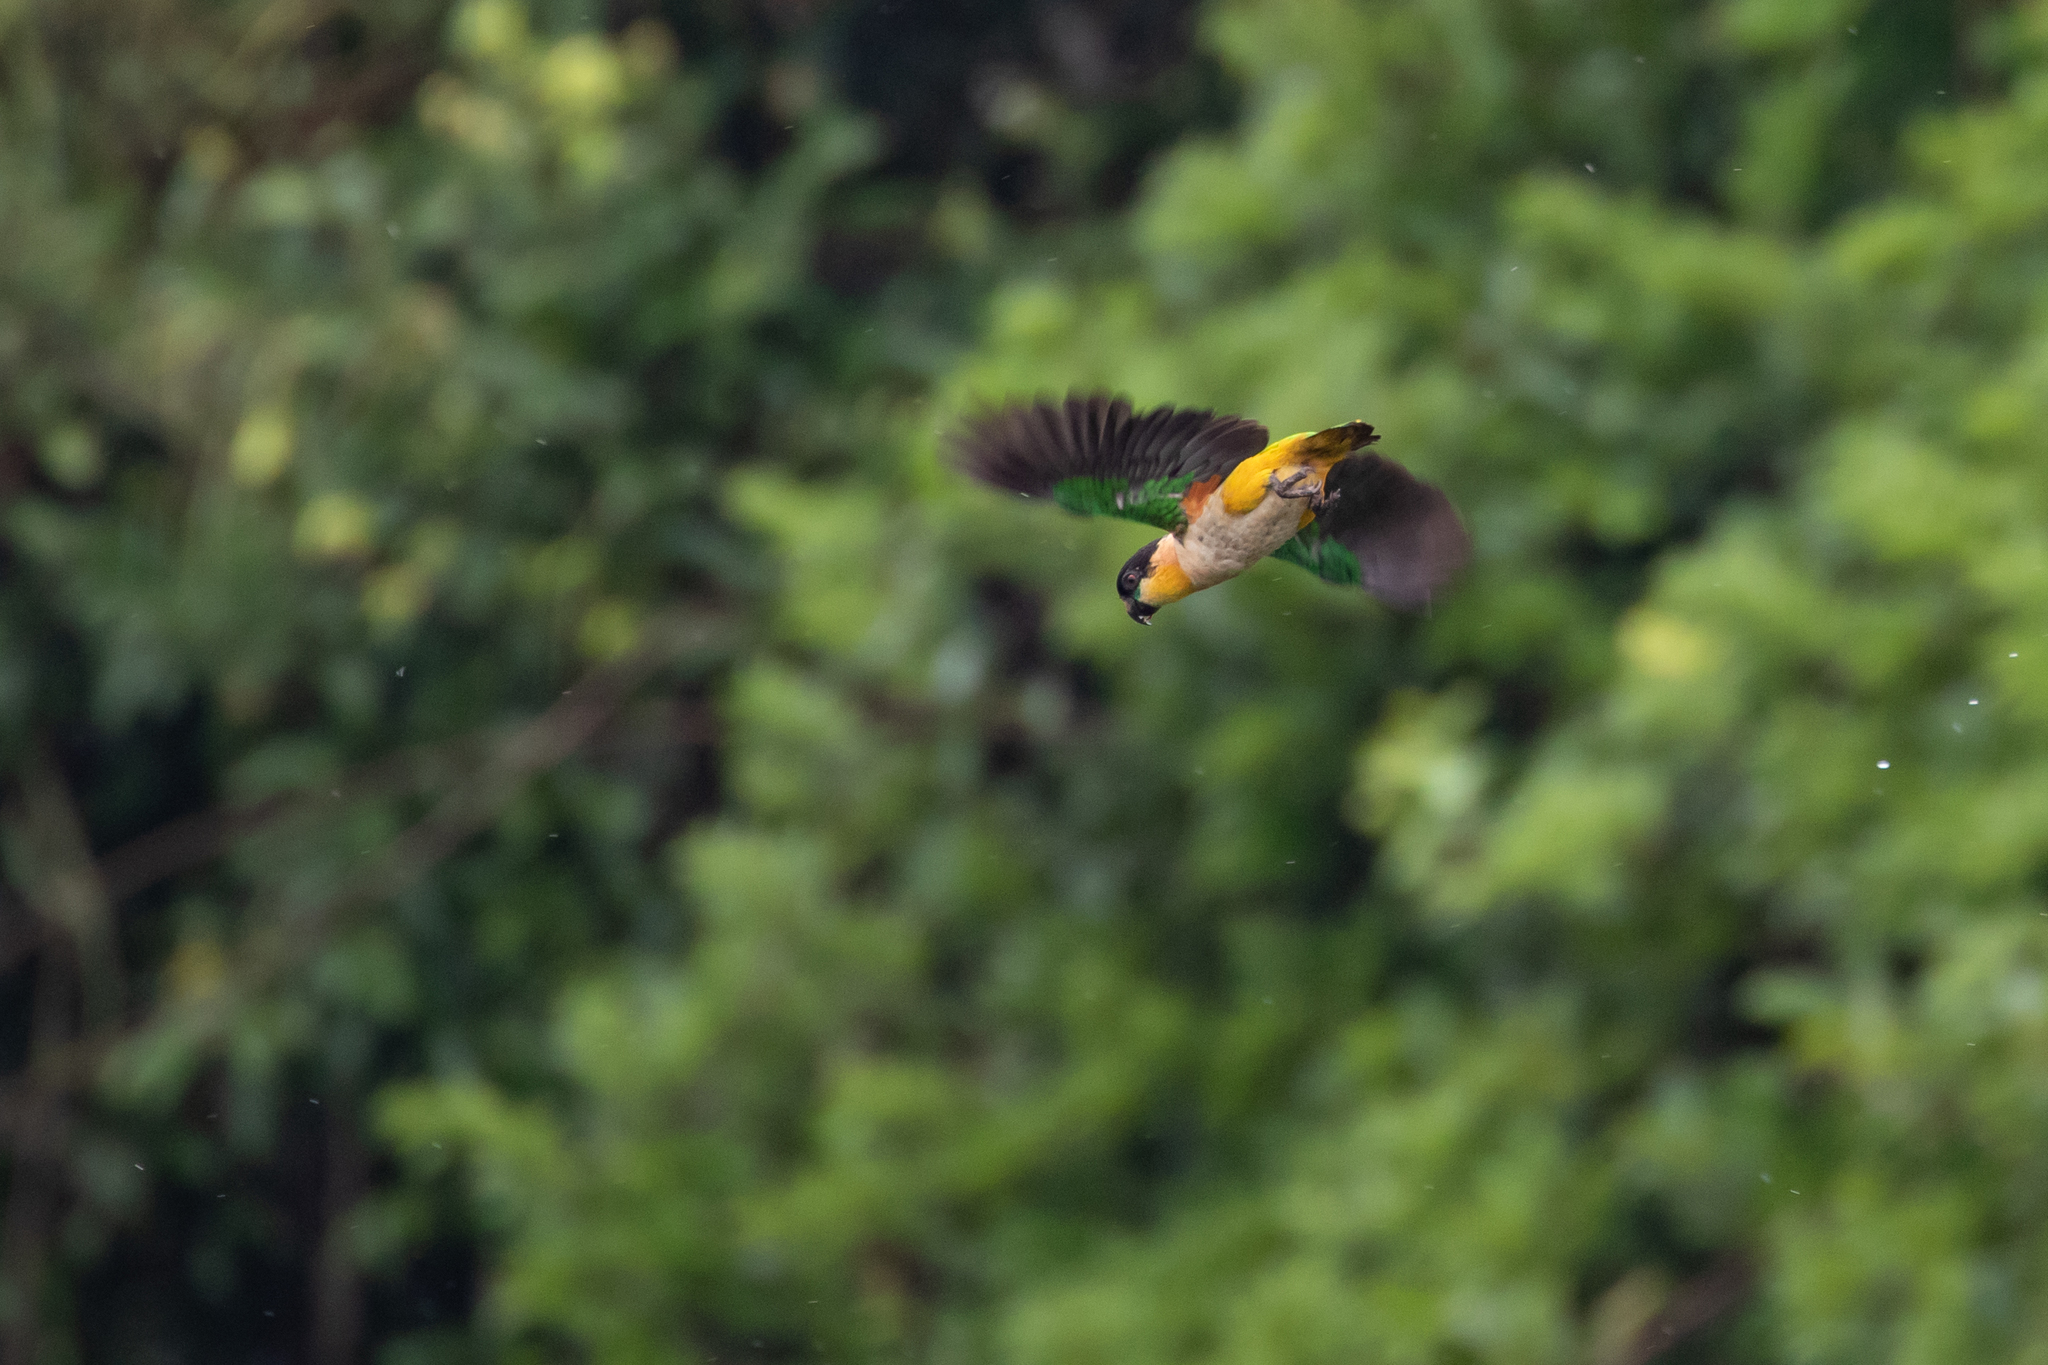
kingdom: Animalia
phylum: Chordata
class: Aves
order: Psittaciformes
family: Psittacidae
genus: Pionites
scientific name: Pionites melanocephalus
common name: Black-headed parrot
